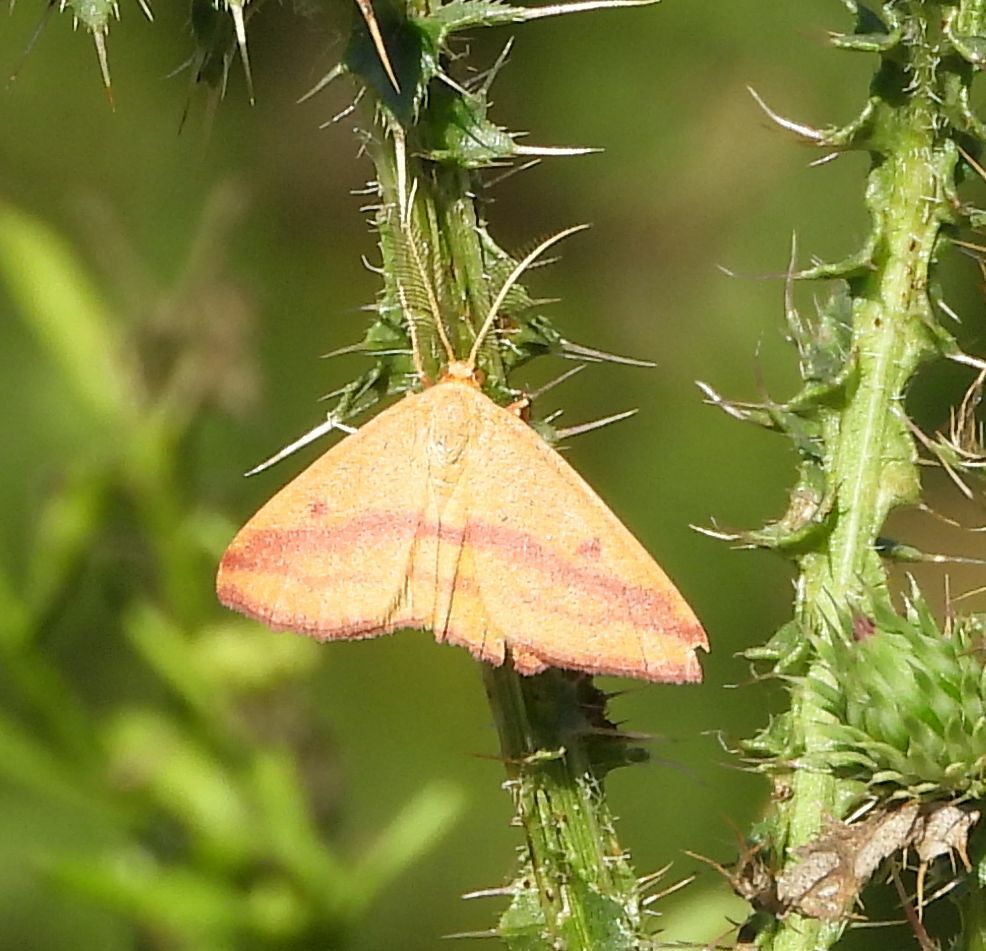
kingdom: Animalia
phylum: Arthropoda
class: Insecta
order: Lepidoptera
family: Geometridae
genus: Haematopis
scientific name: Haematopis grataria
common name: Chickweed geometer
